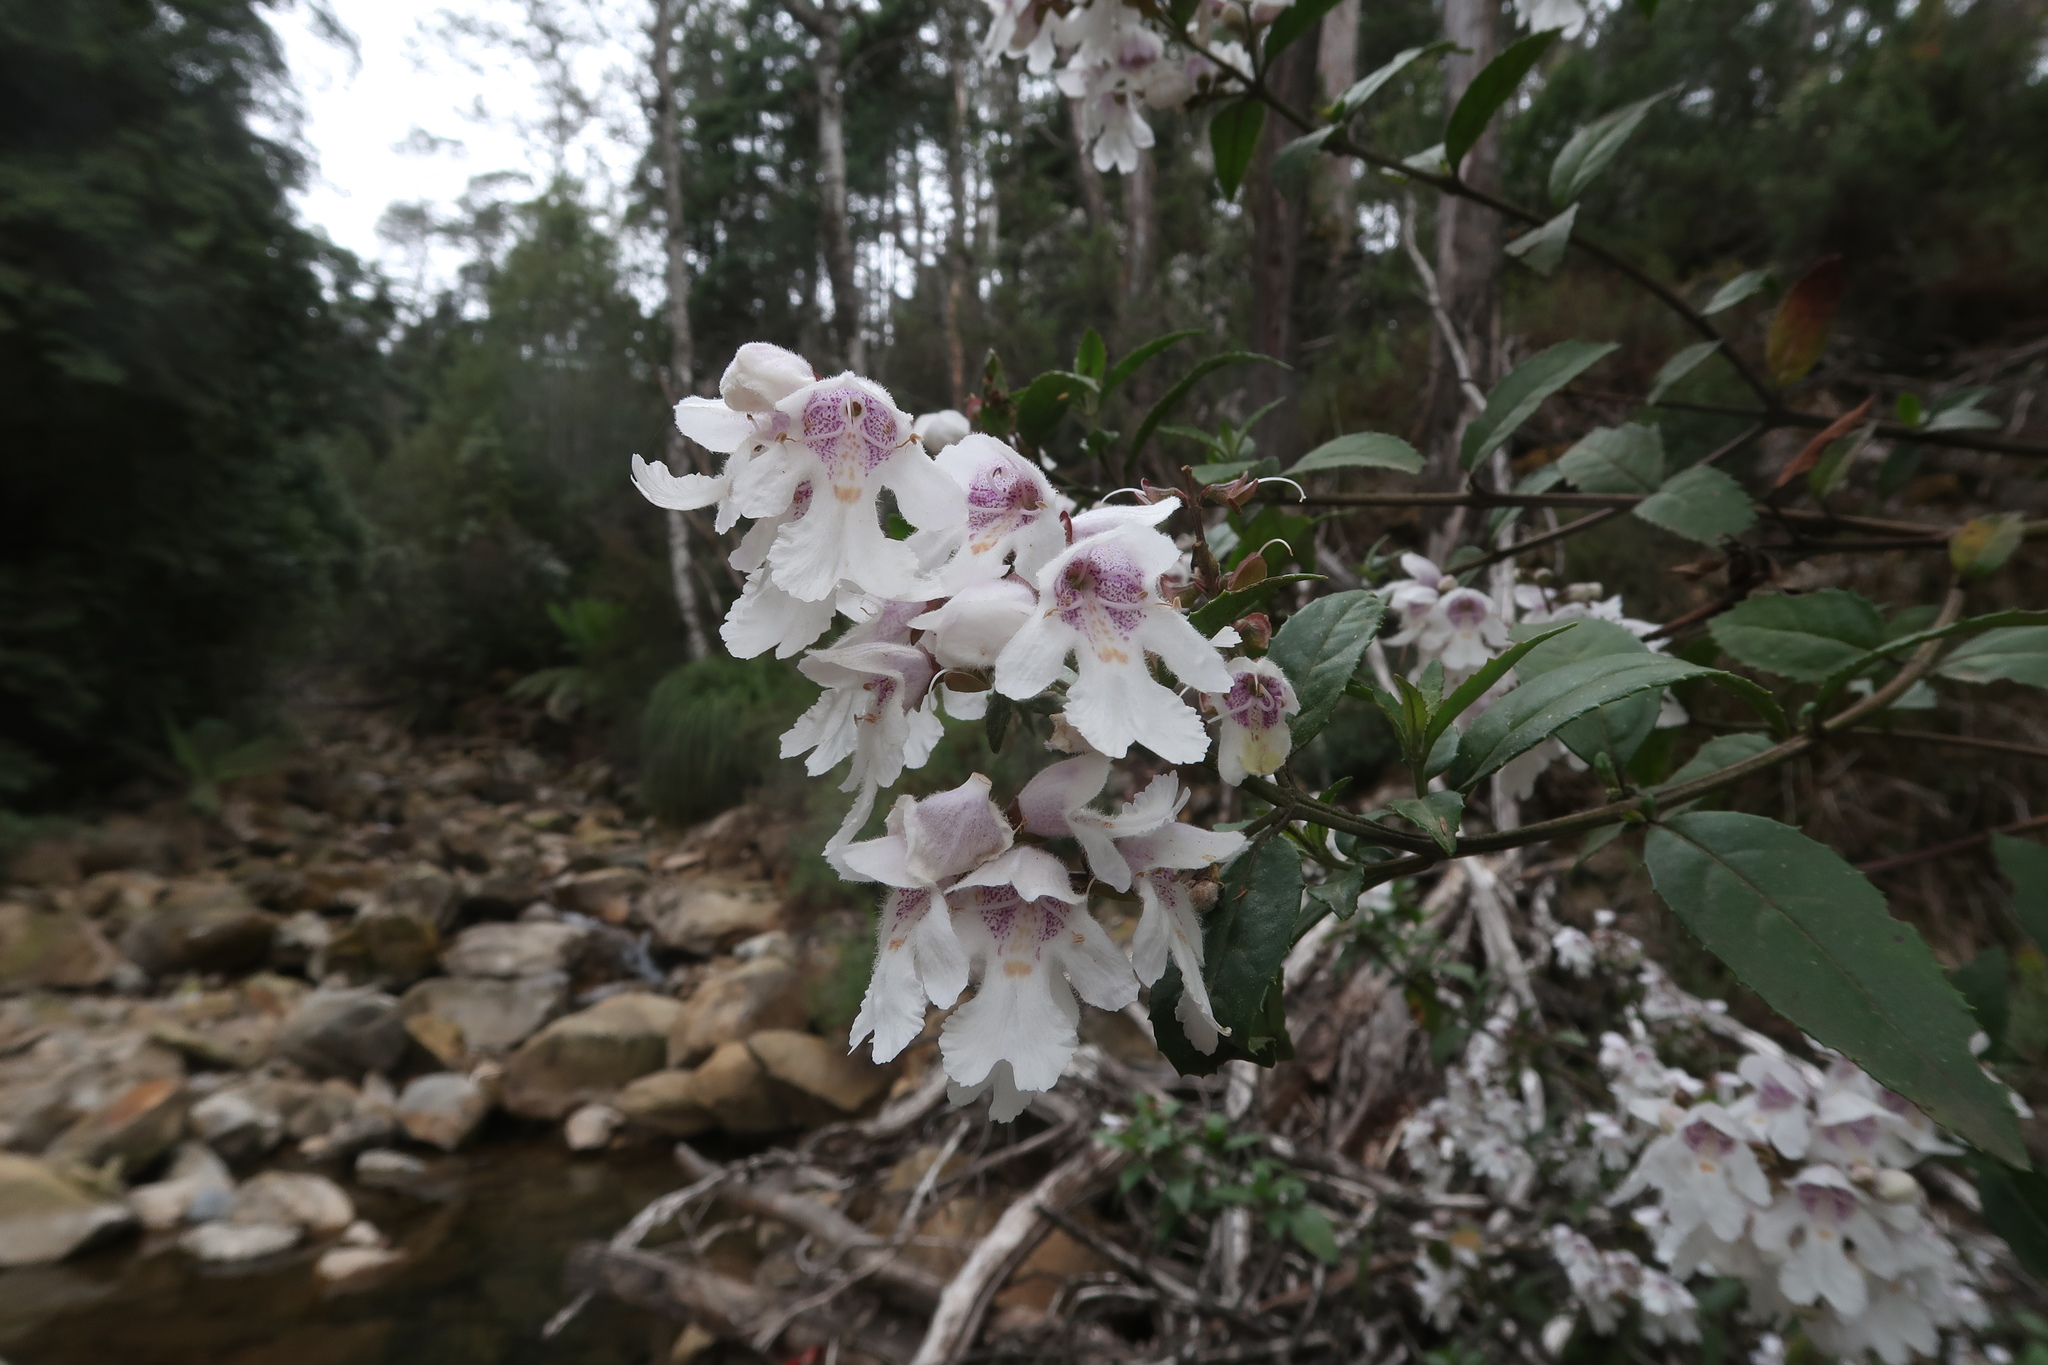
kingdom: Plantae
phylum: Tracheophyta
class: Magnoliopsida
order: Lamiales
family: Lamiaceae
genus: Prostanthera
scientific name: Prostanthera lasianthos
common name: Mountain-lilac
